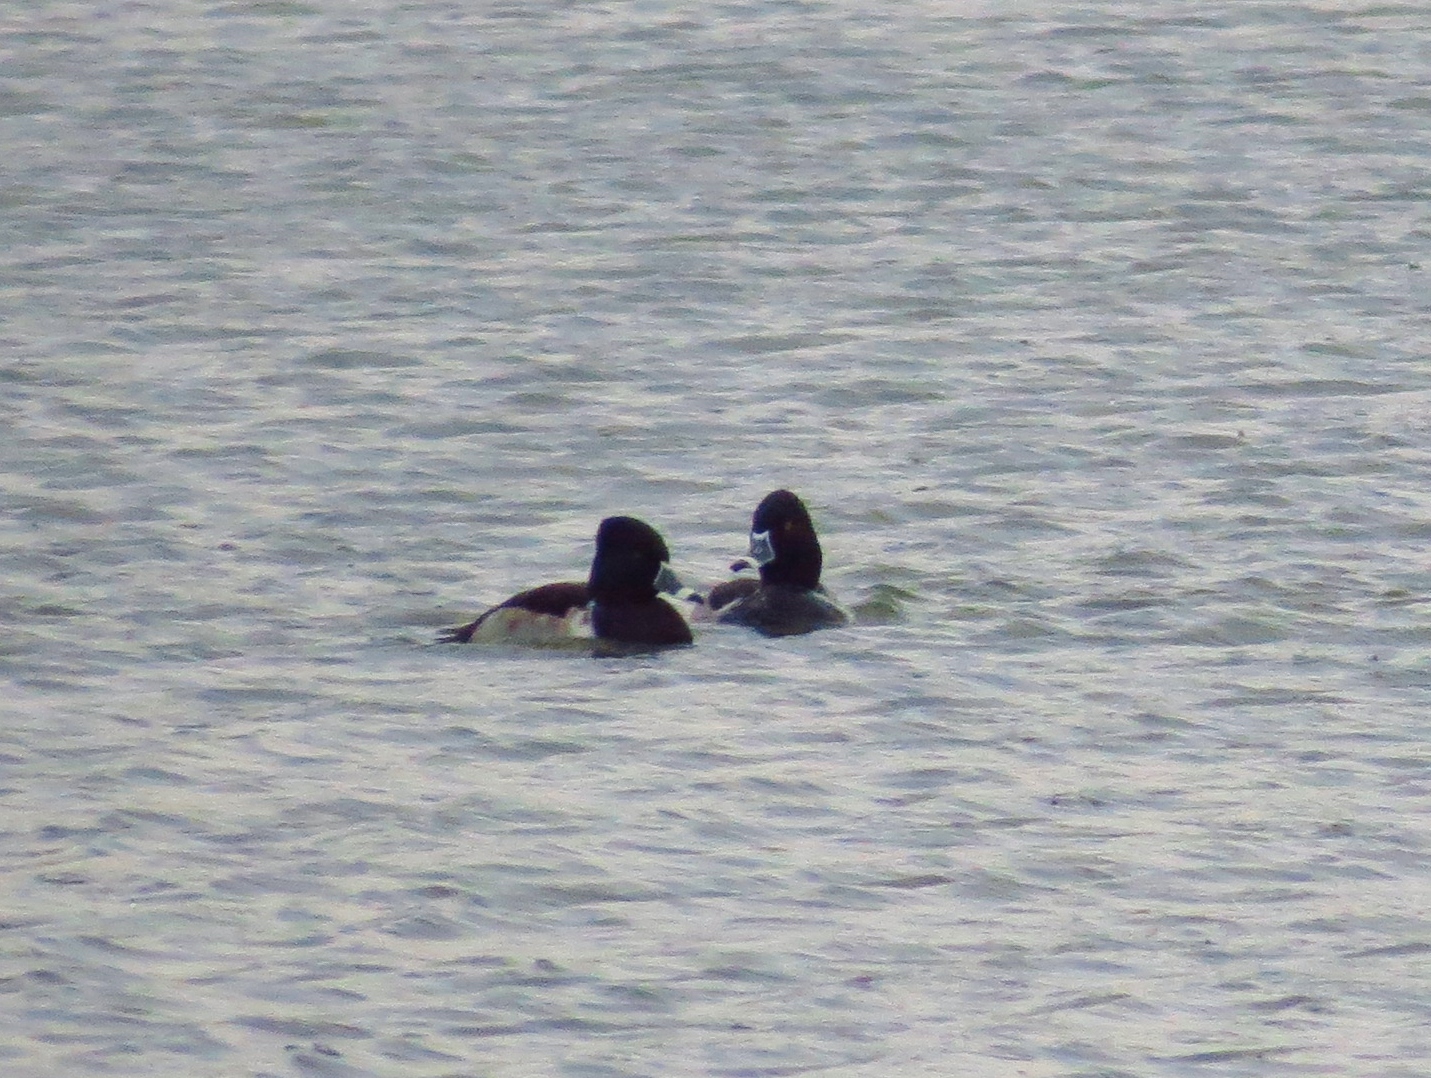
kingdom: Animalia
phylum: Chordata
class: Aves
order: Anseriformes
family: Anatidae
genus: Aythya
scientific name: Aythya collaris
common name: Ring-necked duck
